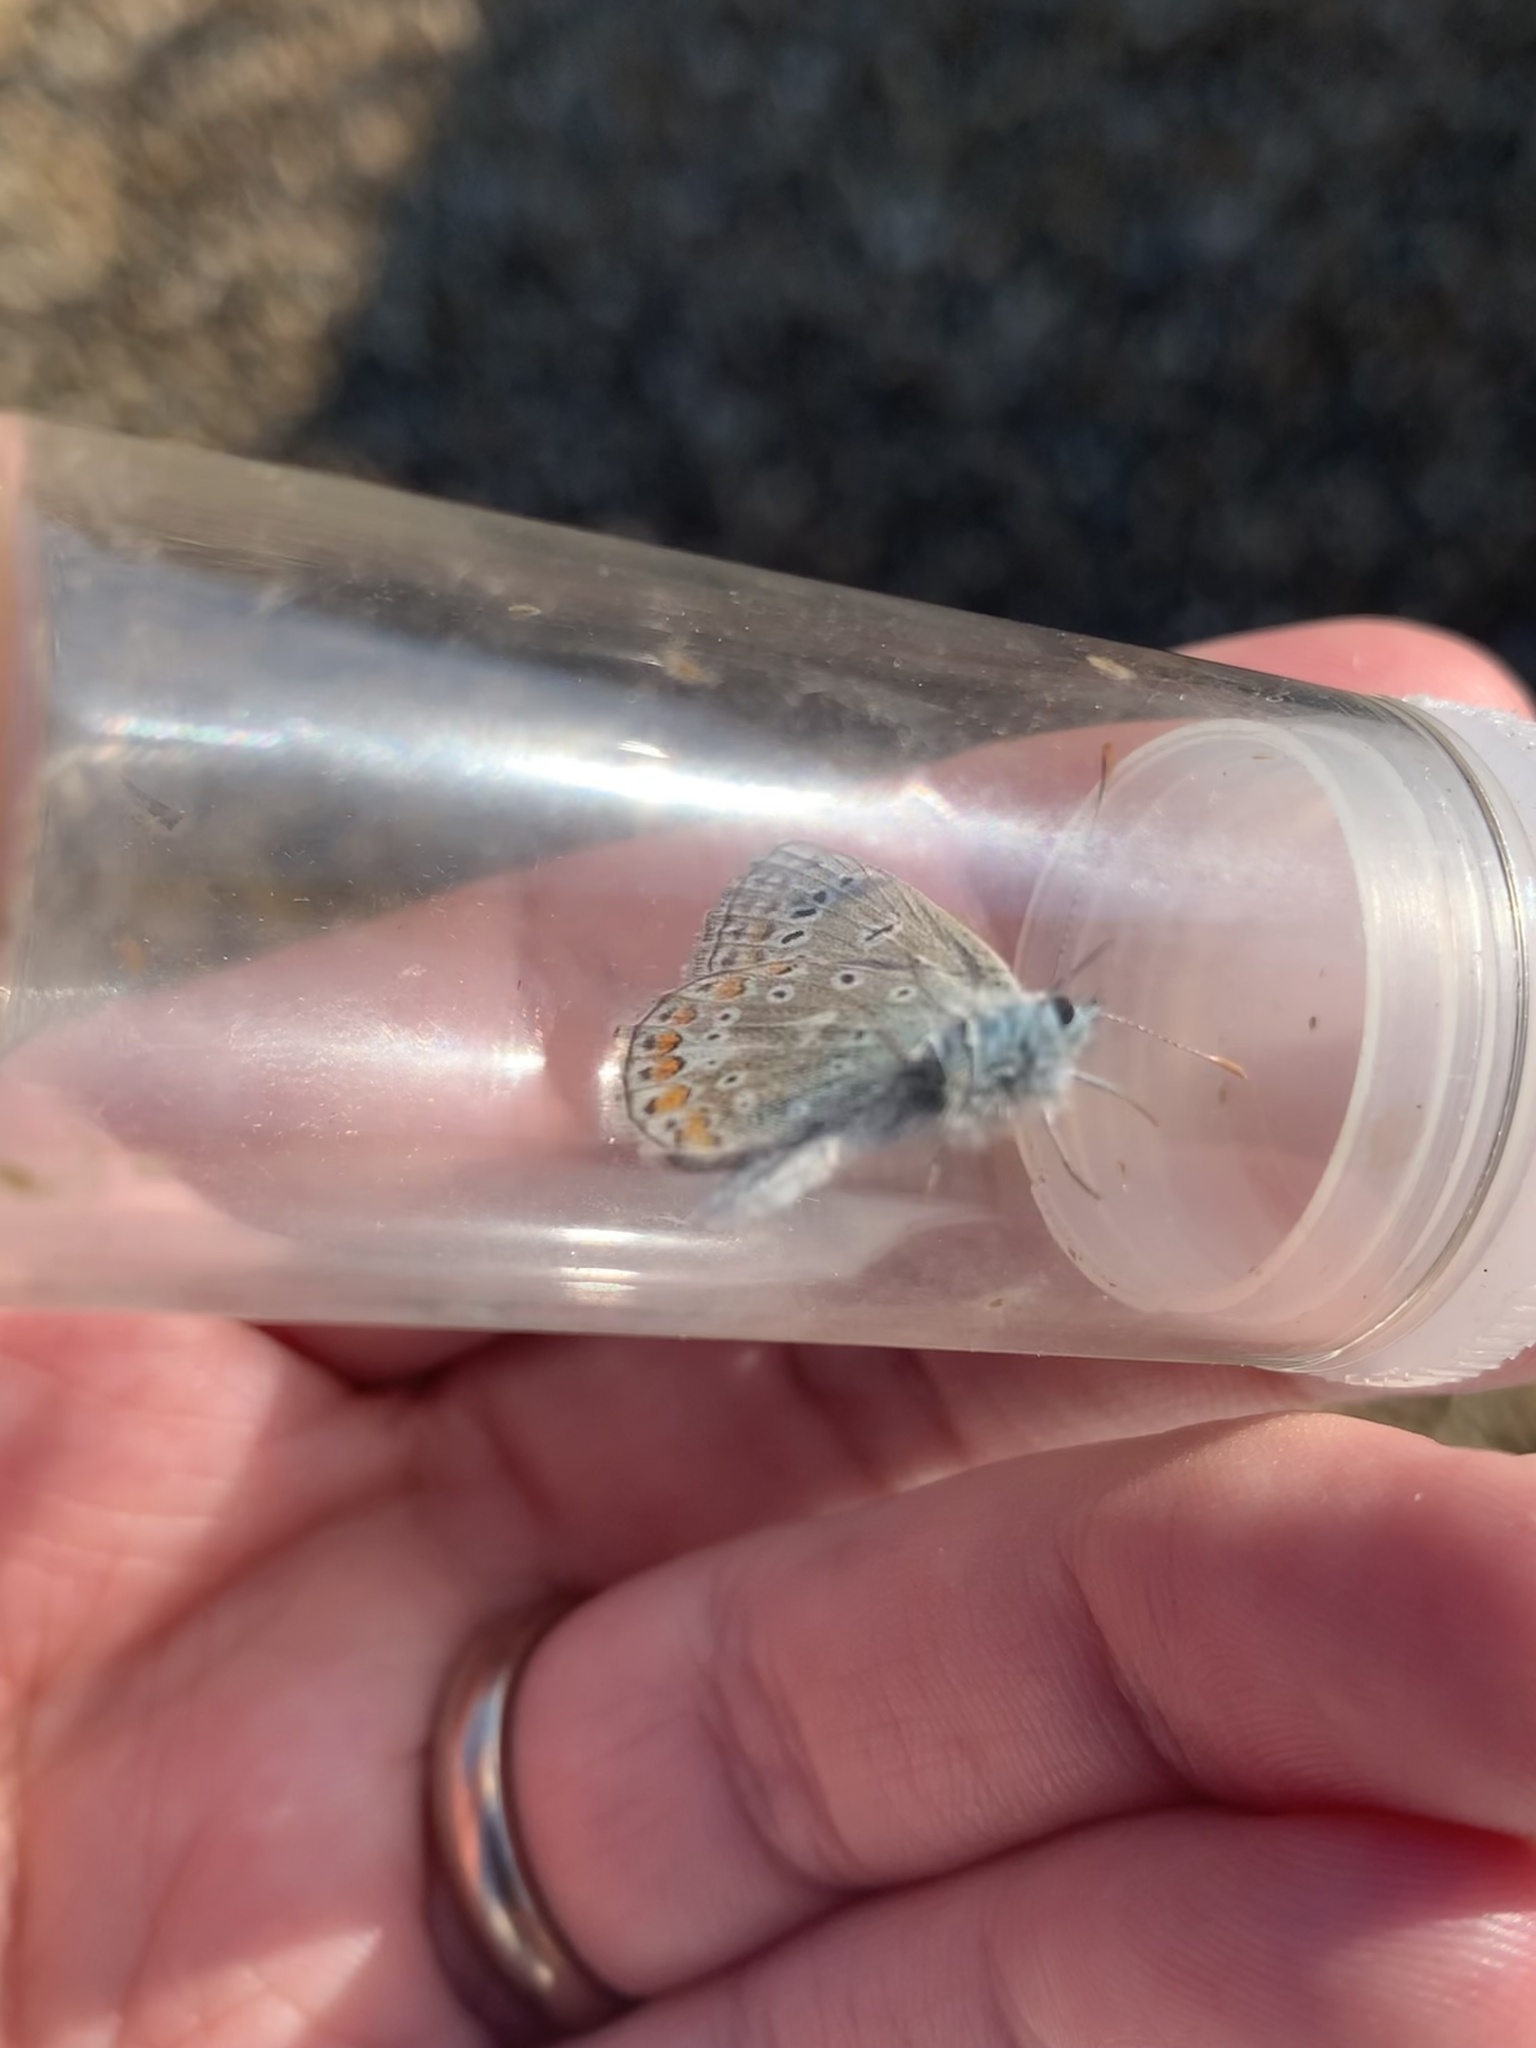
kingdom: Animalia
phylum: Arthropoda
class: Insecta
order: Lepidoptera
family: Lycaenidae
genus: Polyommatus
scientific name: Polyommatus icarus
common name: Common blue
